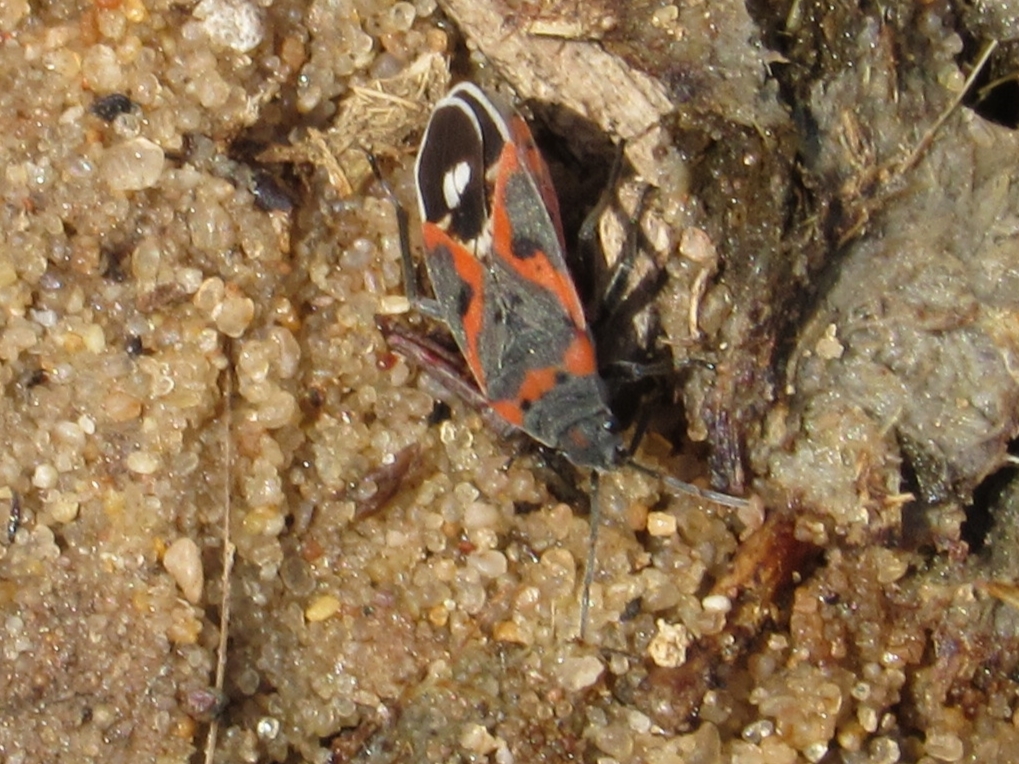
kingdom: Animalia
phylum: Arthropoda
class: Insecta
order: Hemiptera
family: Lygaeidae
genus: Lygaeus
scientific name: Lygaeus kalmii
